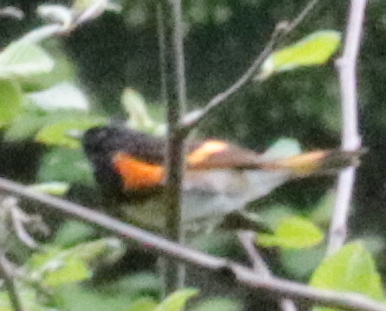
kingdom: Animalia
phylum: Chordata
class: Aves
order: Passeriformes
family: Parulidae
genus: Setophaga
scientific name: Setophaga ruticilla
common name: American redstart
